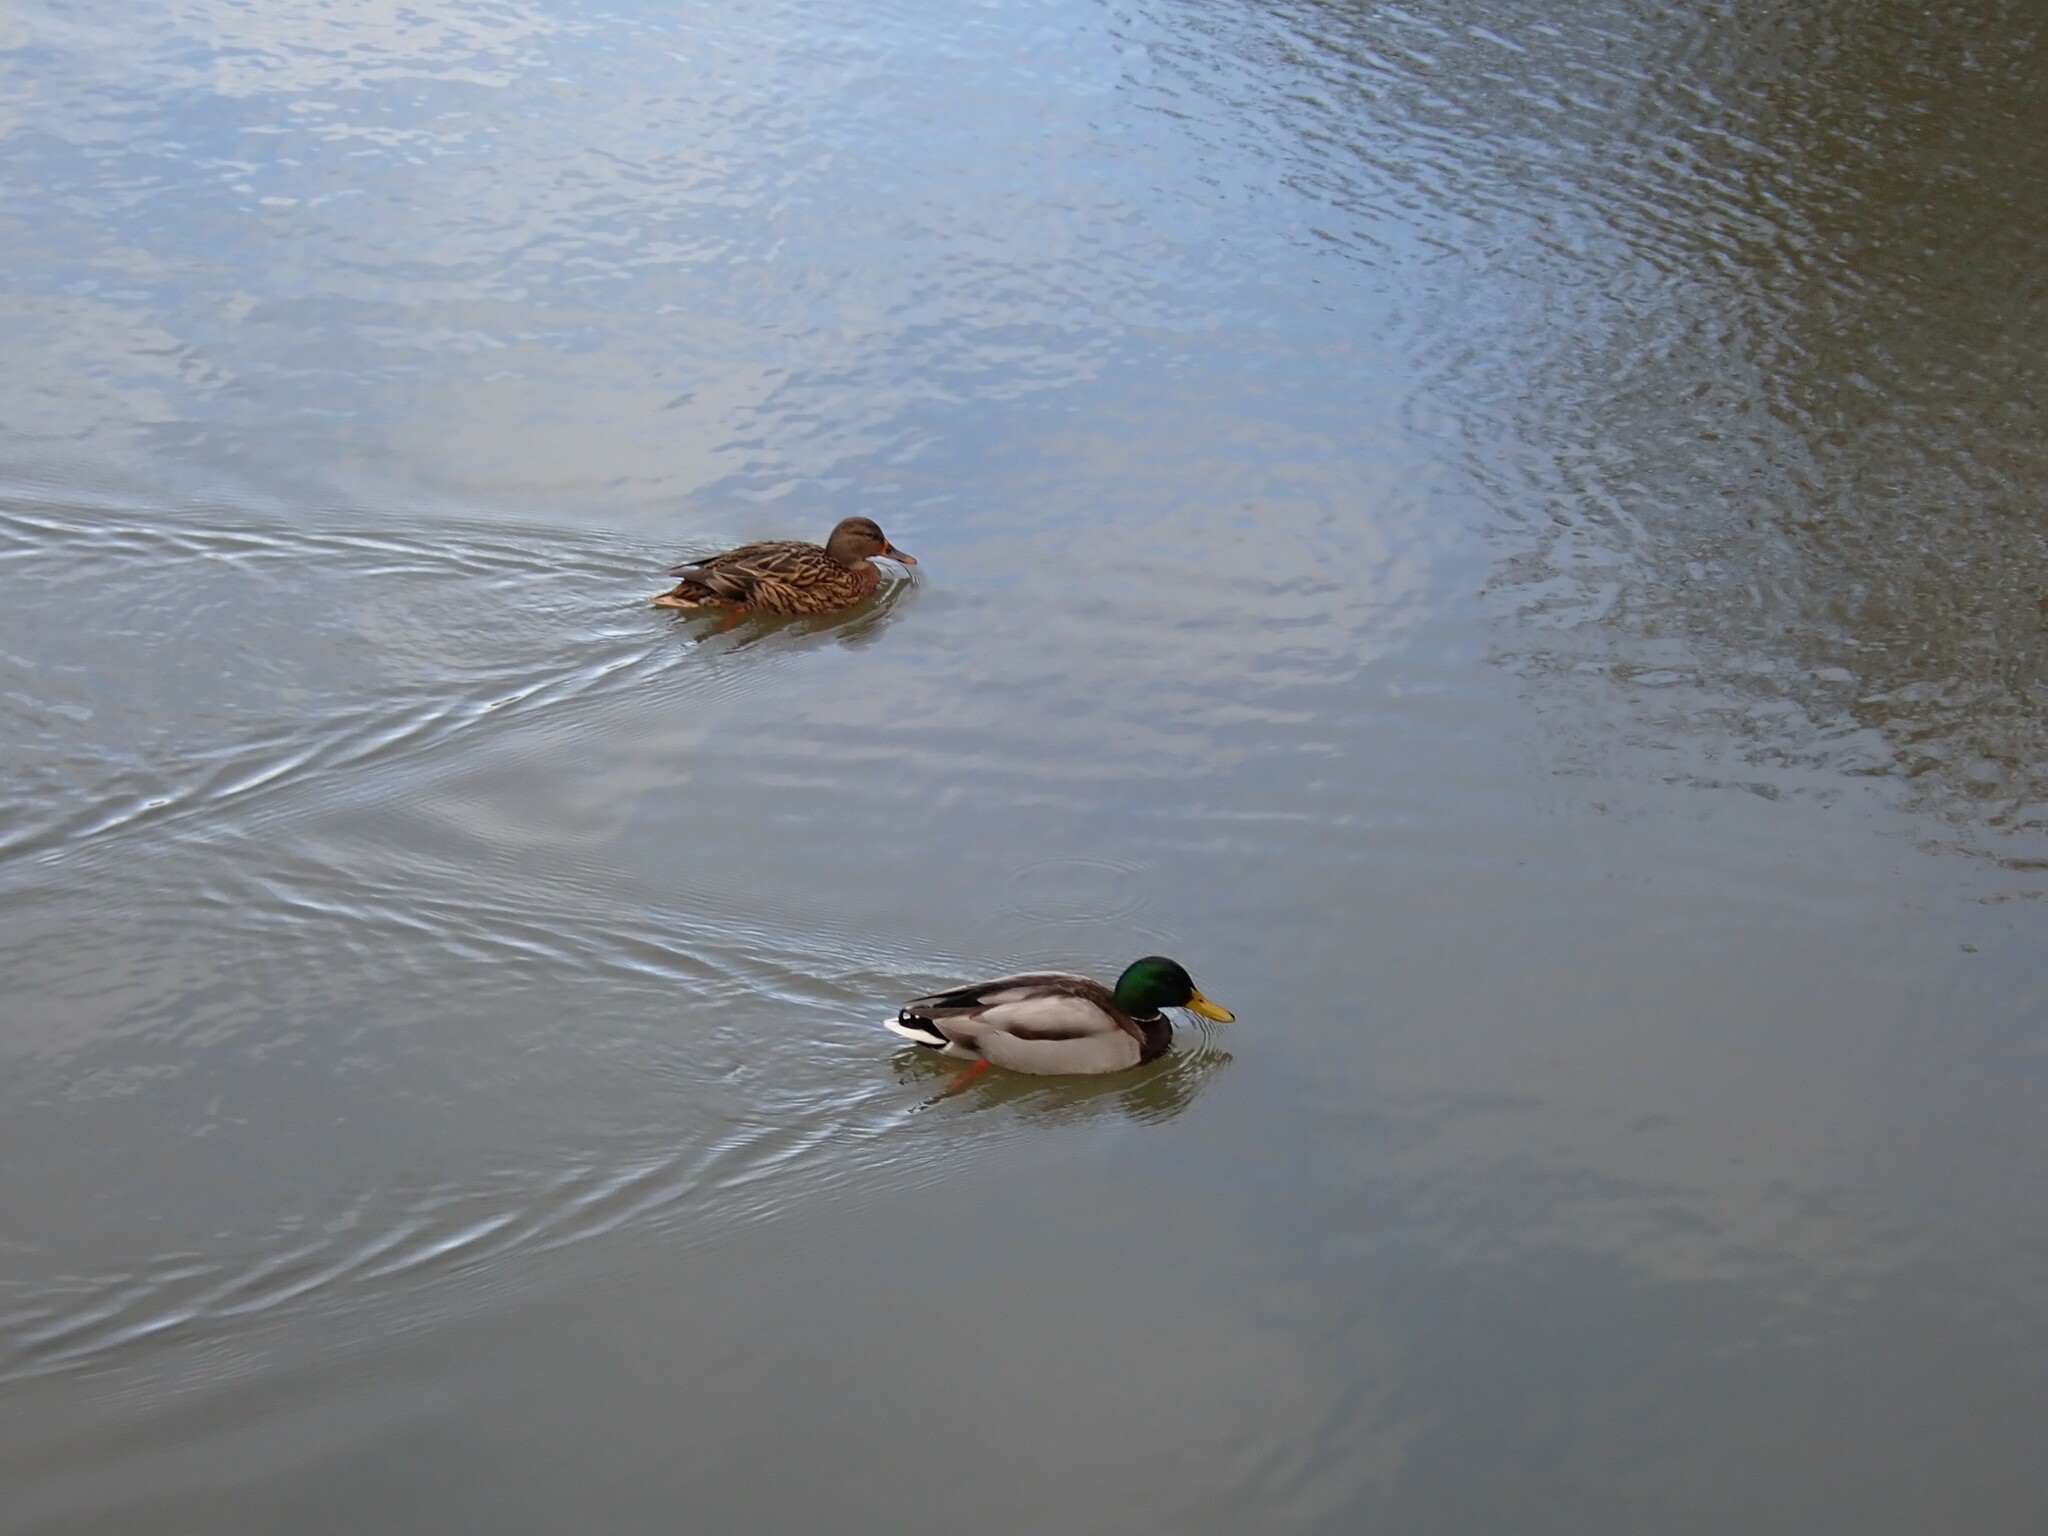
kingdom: Animalia
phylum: Chordata
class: Aves
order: Anseriformes
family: Anatidae
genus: Anas
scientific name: Anas platyrhynchos
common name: Mallard
